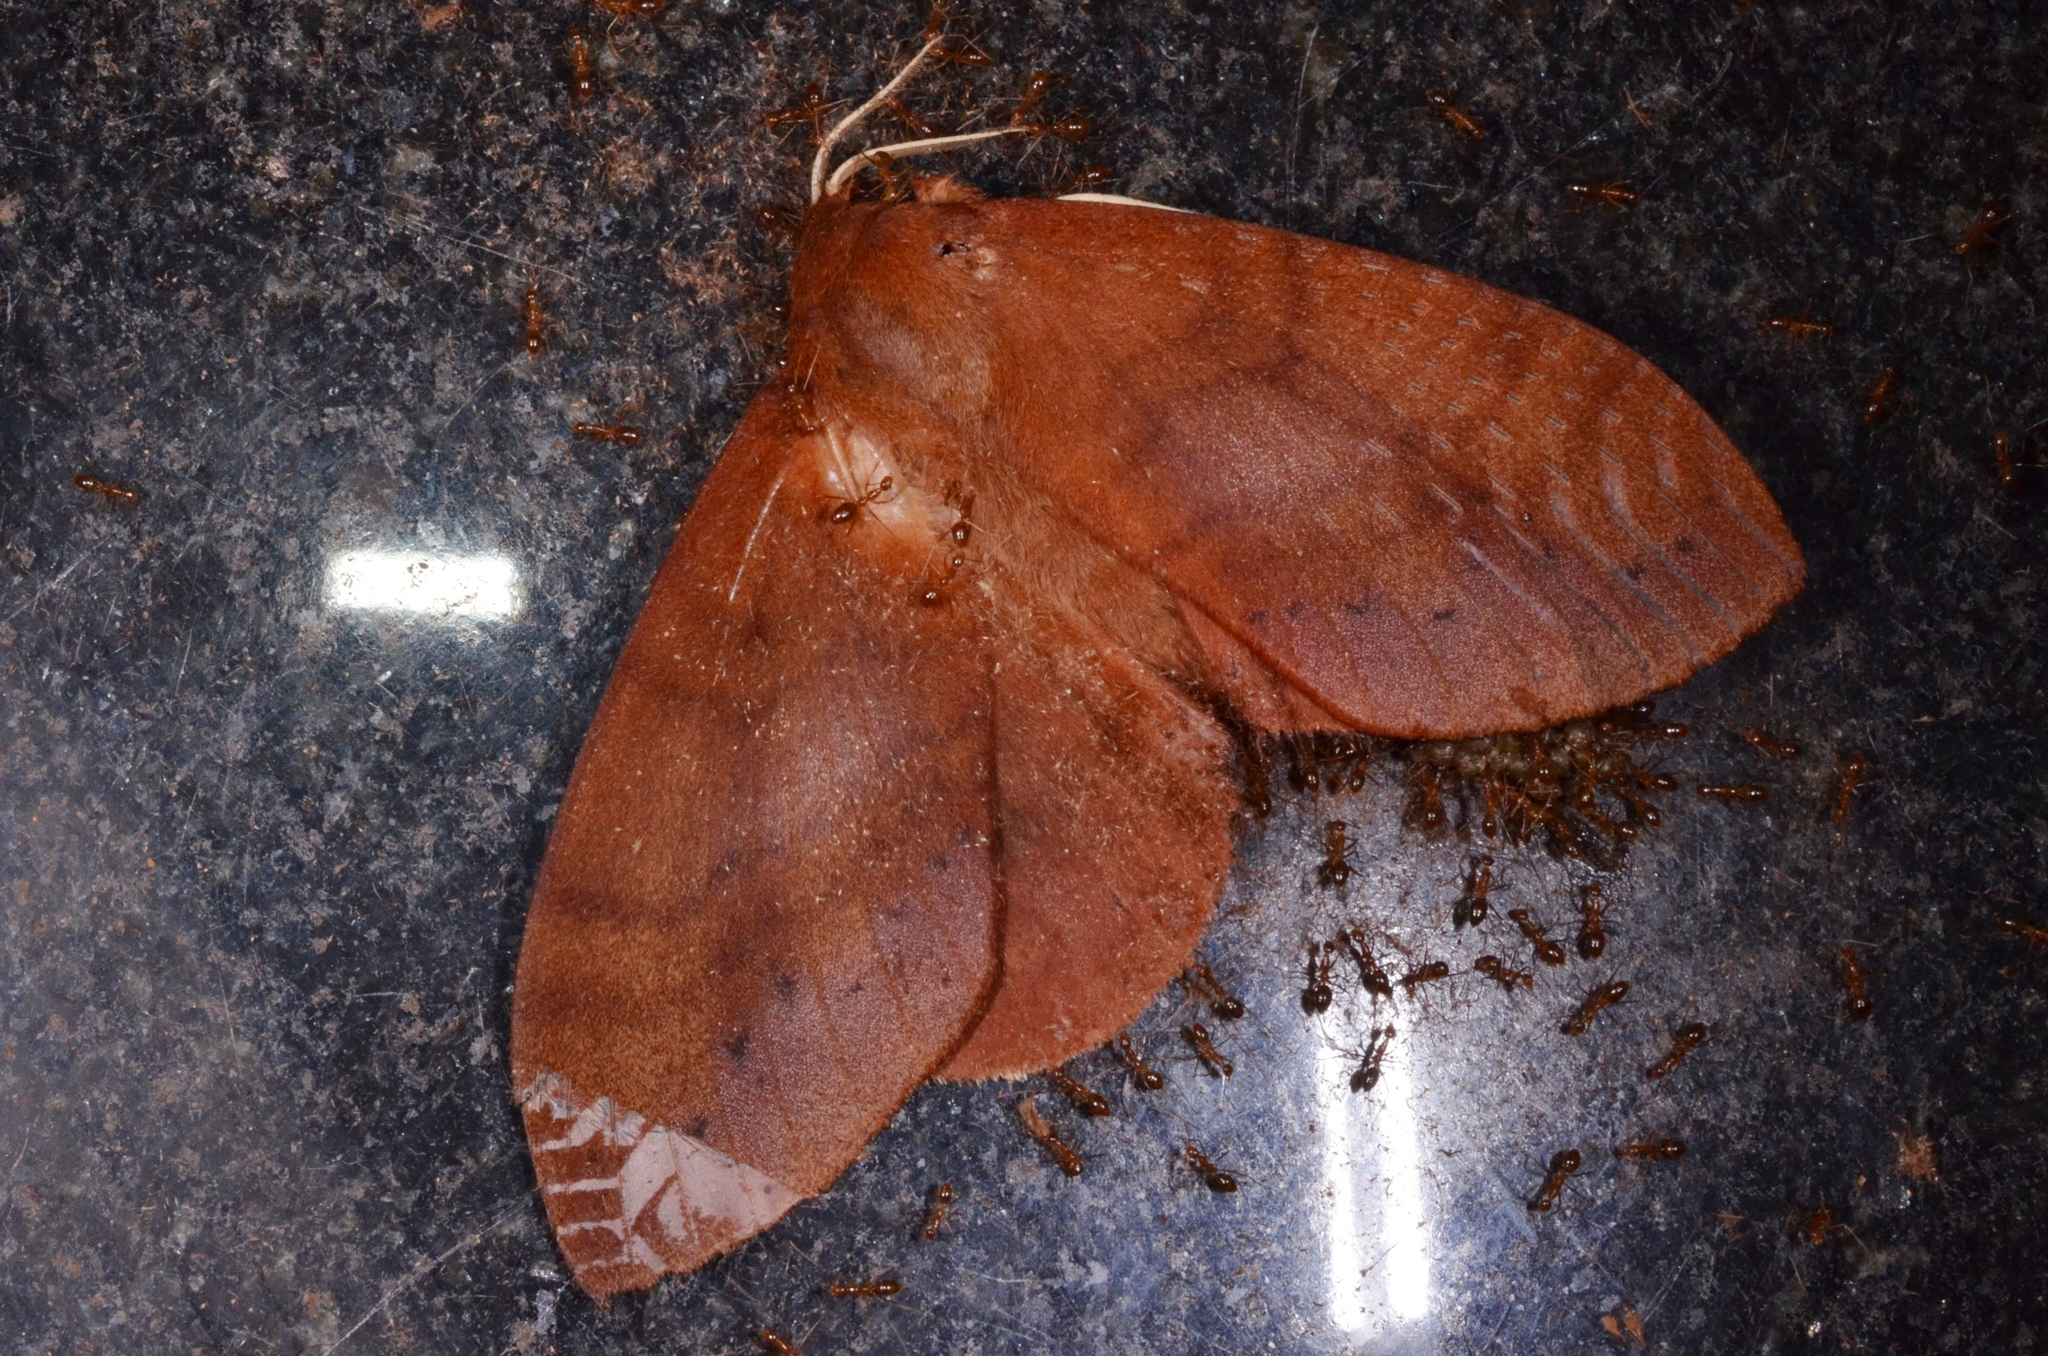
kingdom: Animalia
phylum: Arthropoda
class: Insecta
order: Lepidoptera
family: Lasiocampidae
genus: Dendrolimus
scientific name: Dendrolimus grisea
